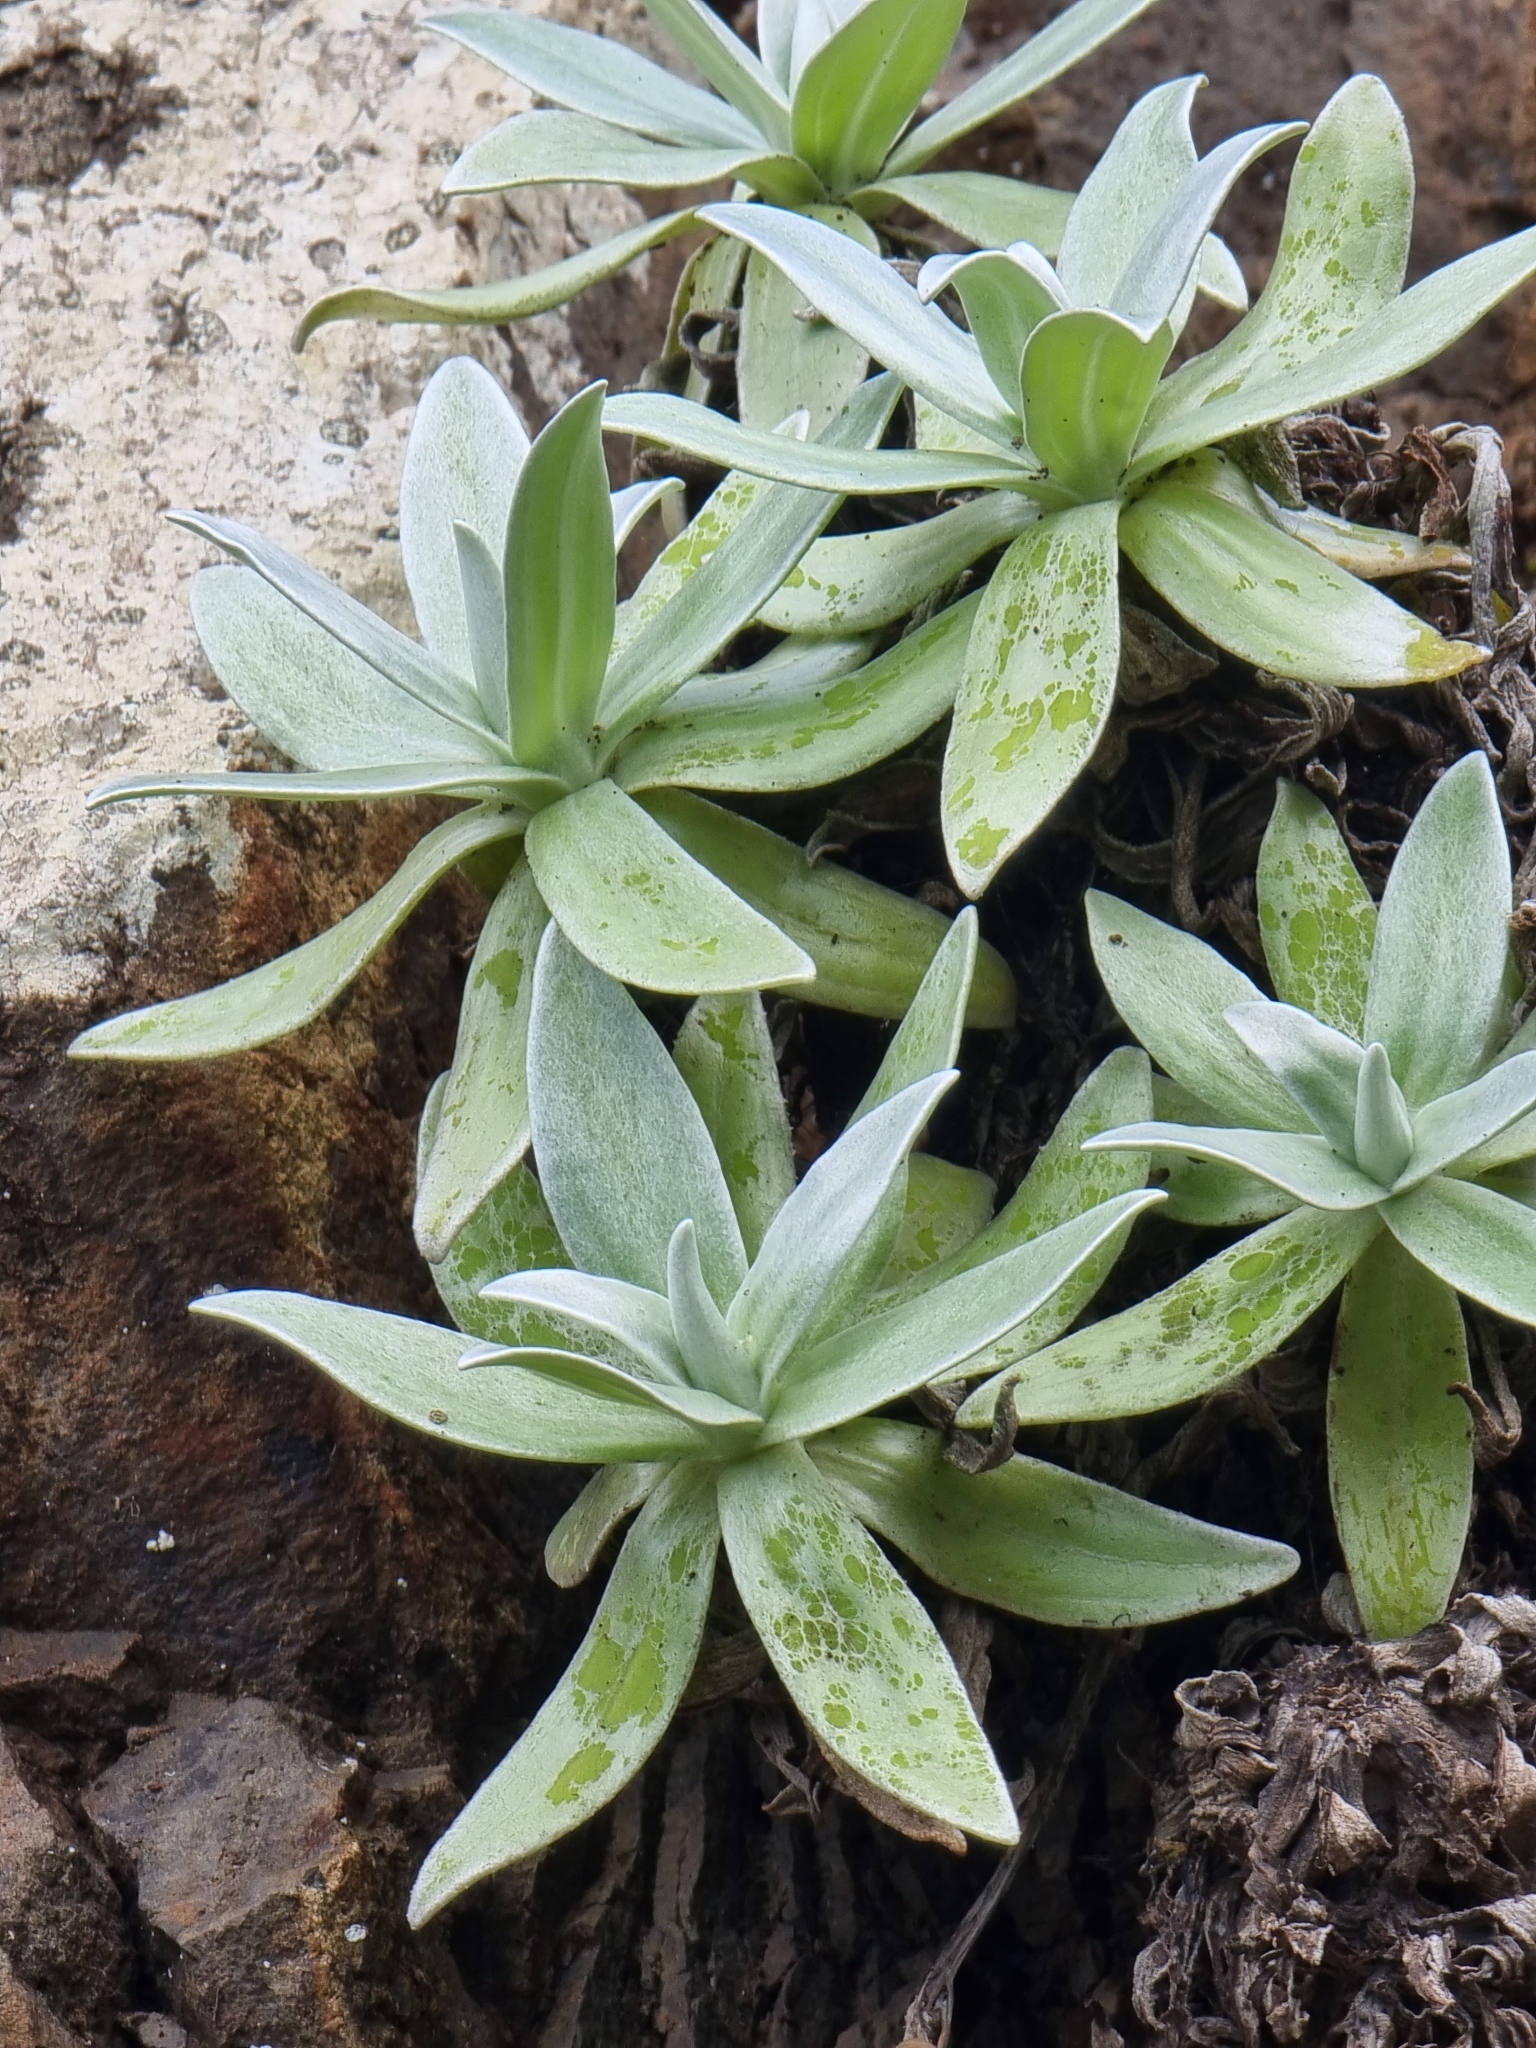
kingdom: Plantae
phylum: Tracheophyta
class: Magnoliopsida
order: Asterales
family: Asteraceae
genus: Helichrysum
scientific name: Helichrysum devium
